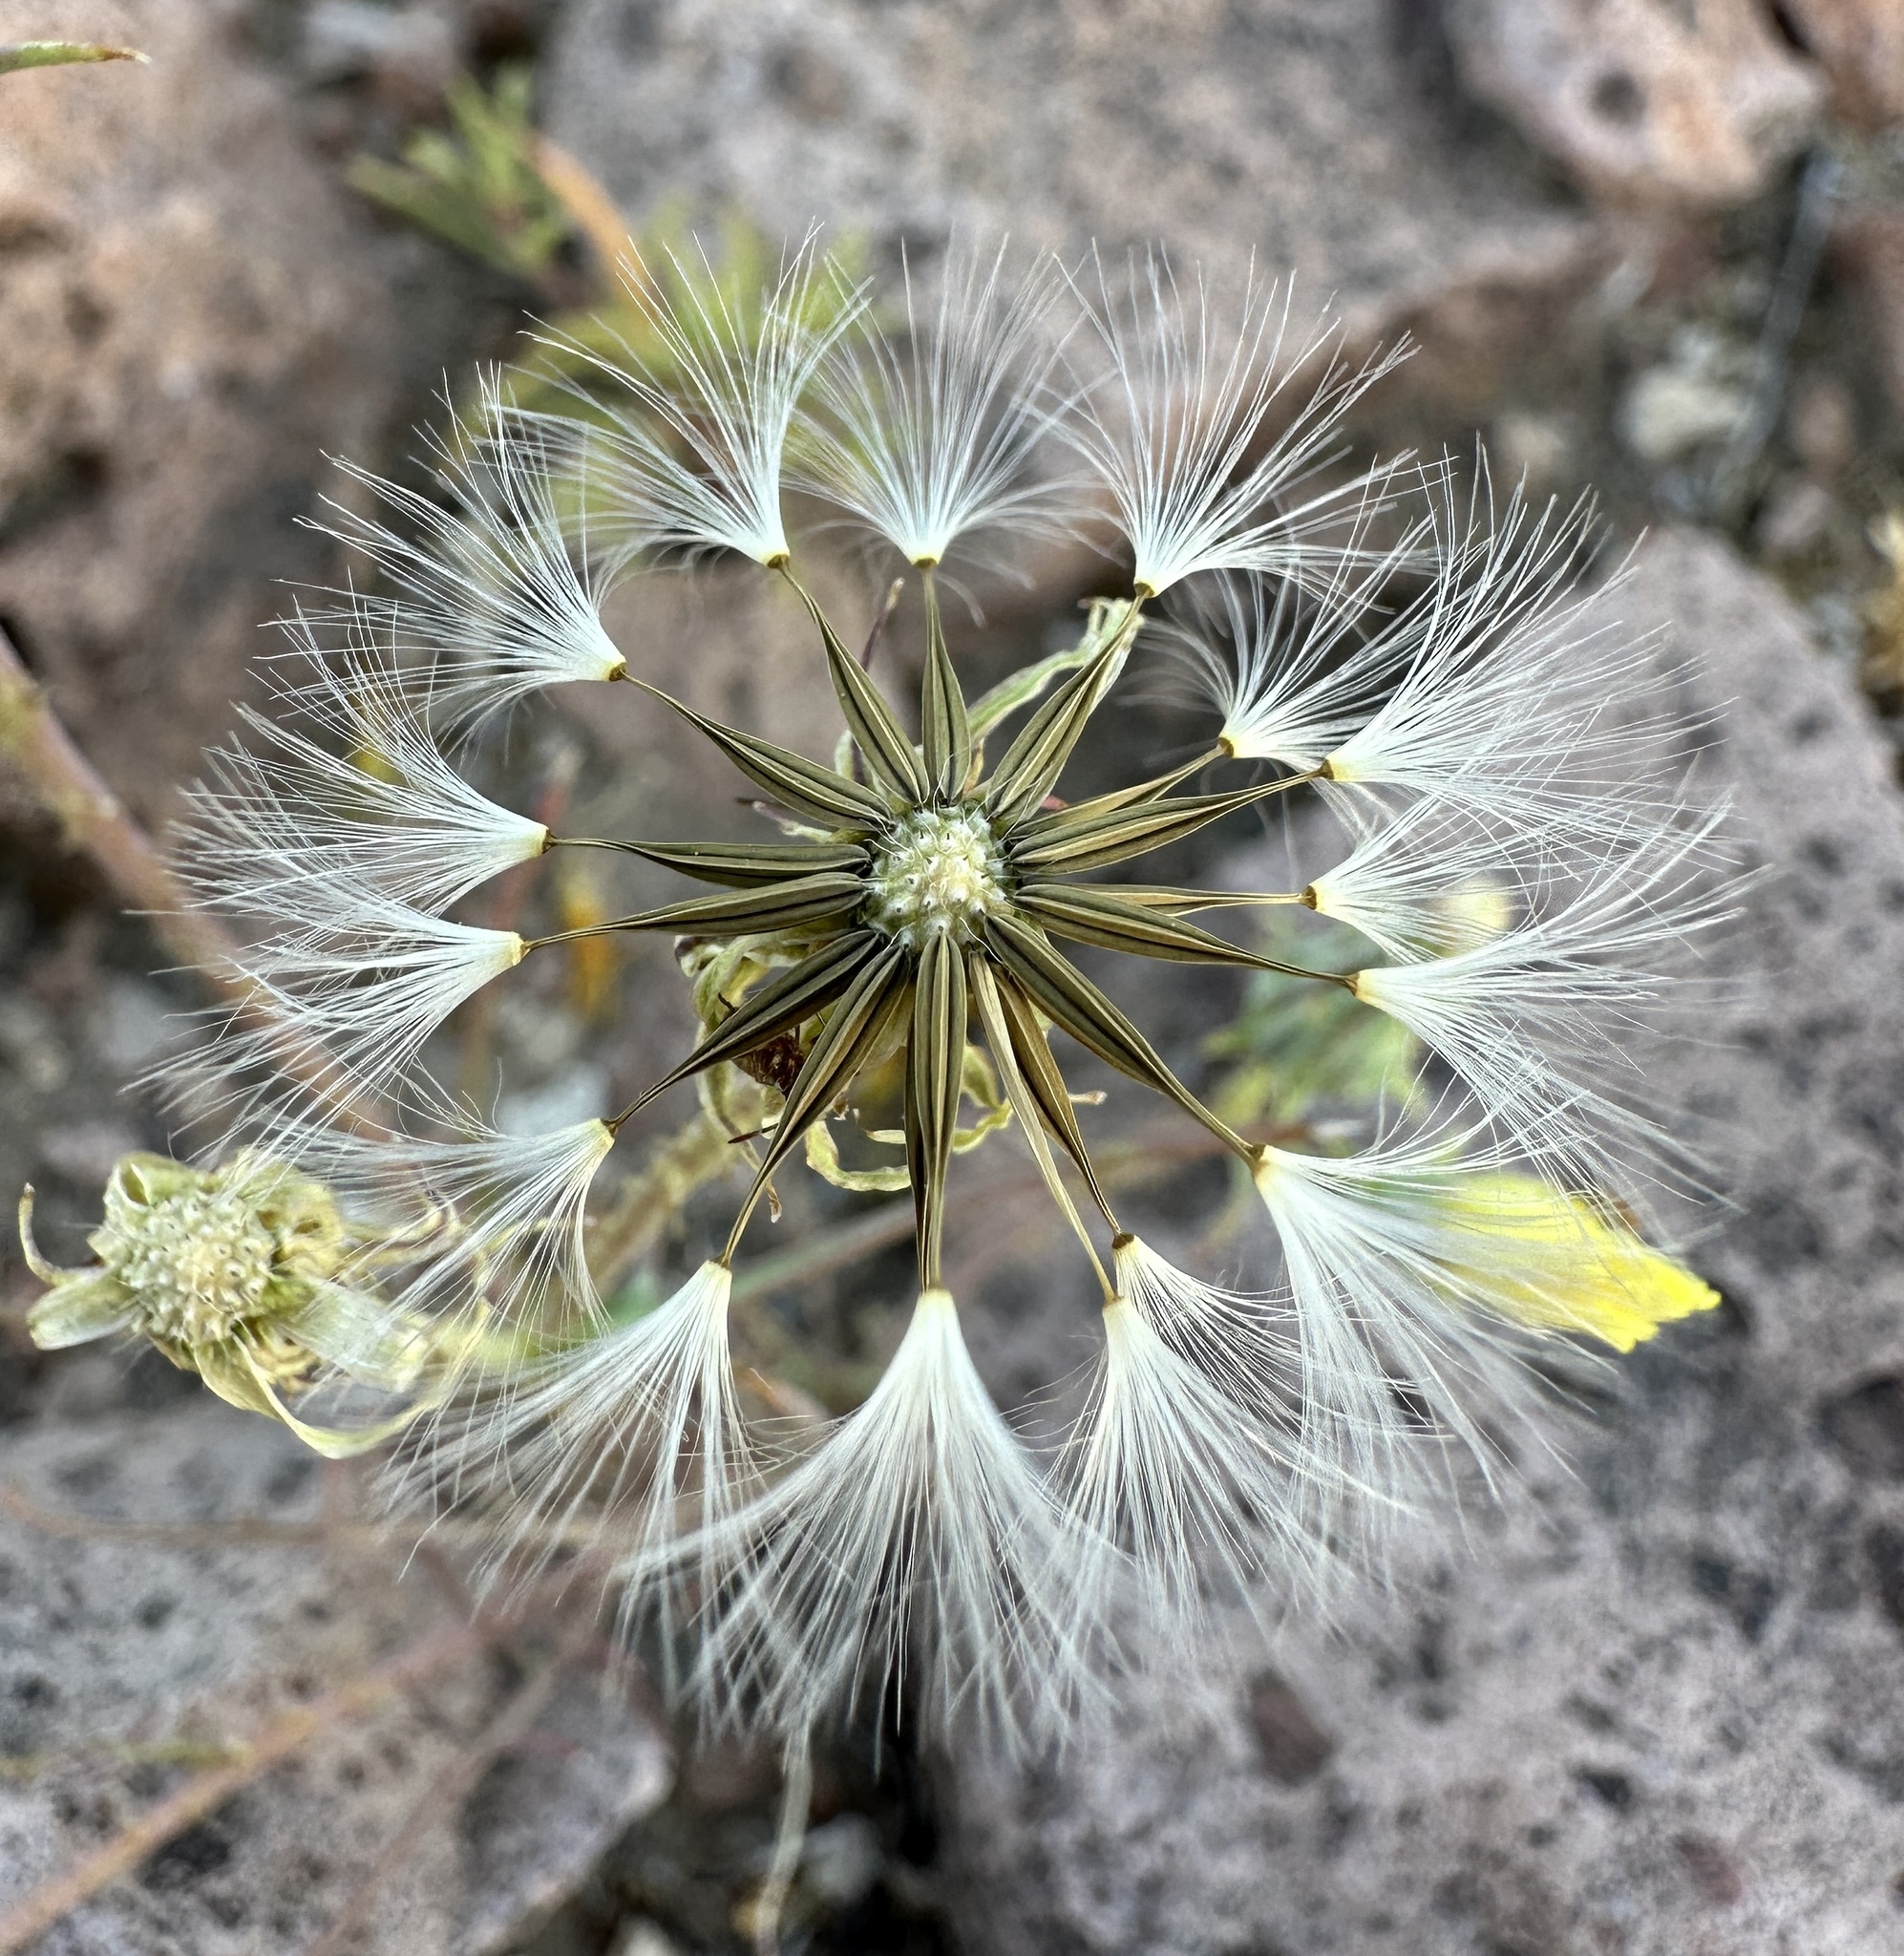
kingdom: Plantae
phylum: Tracheophyta
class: Magnoliopsida
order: Asterales
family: Asteraceae
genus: Calycoseris
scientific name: Calycoseris parryi
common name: Yellow tackstem
